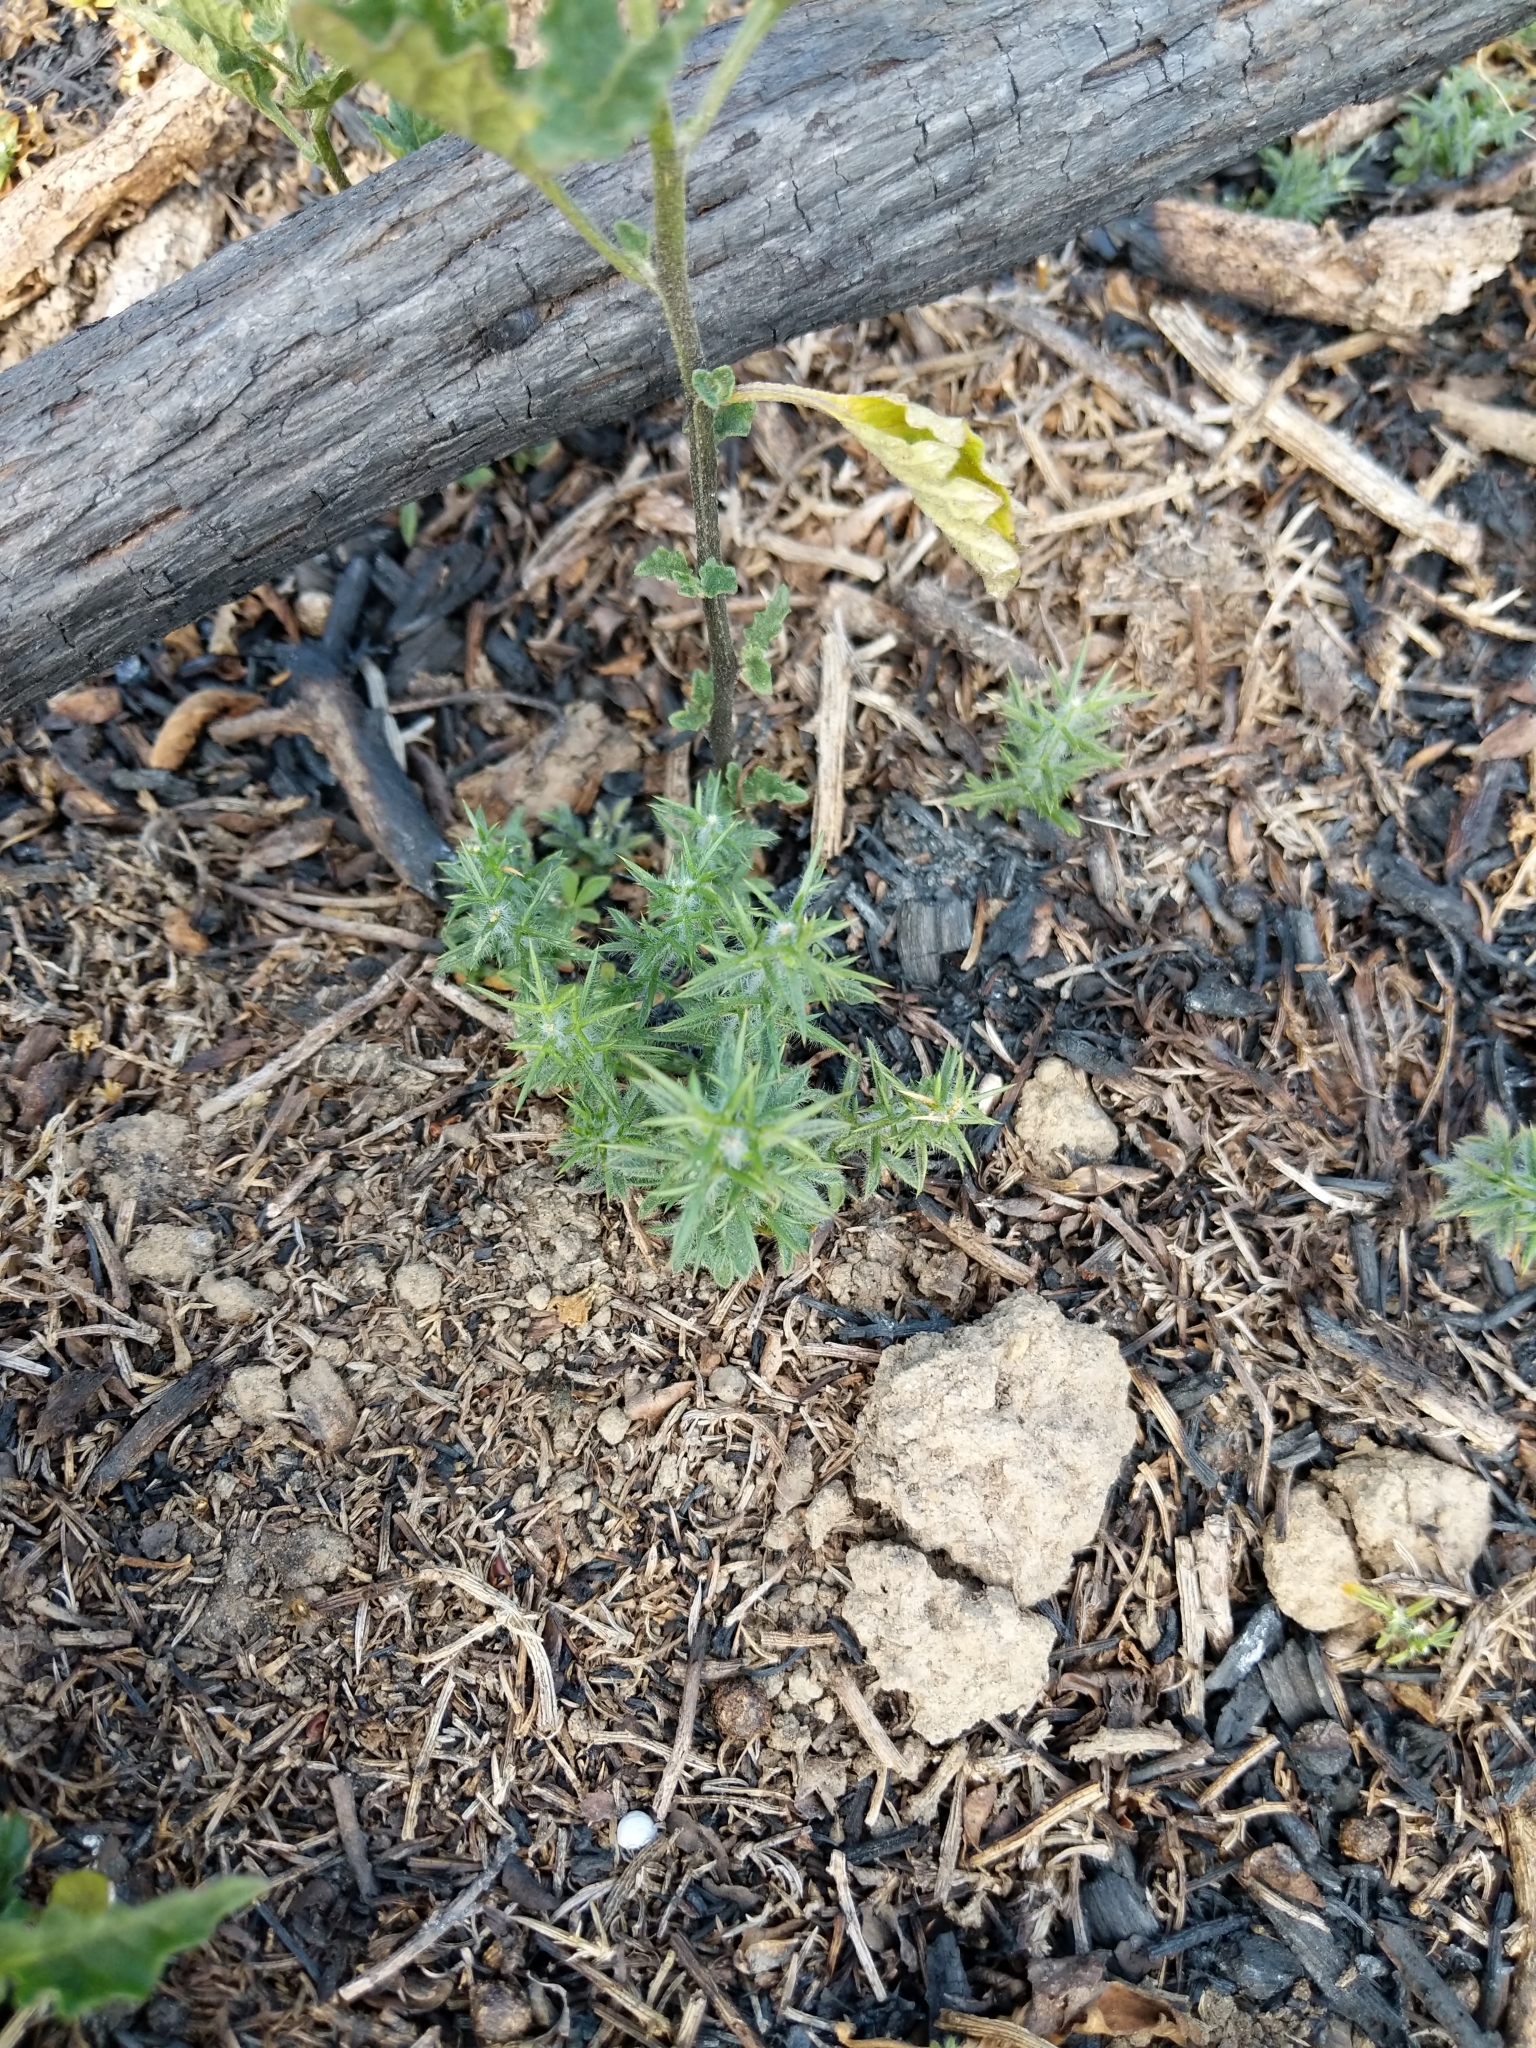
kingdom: Plantae
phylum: Tracheophyta
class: Magnoliopsida
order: Fabales
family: Fabaceae
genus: Ulex
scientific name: Ulex europaeus
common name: Common gorse
